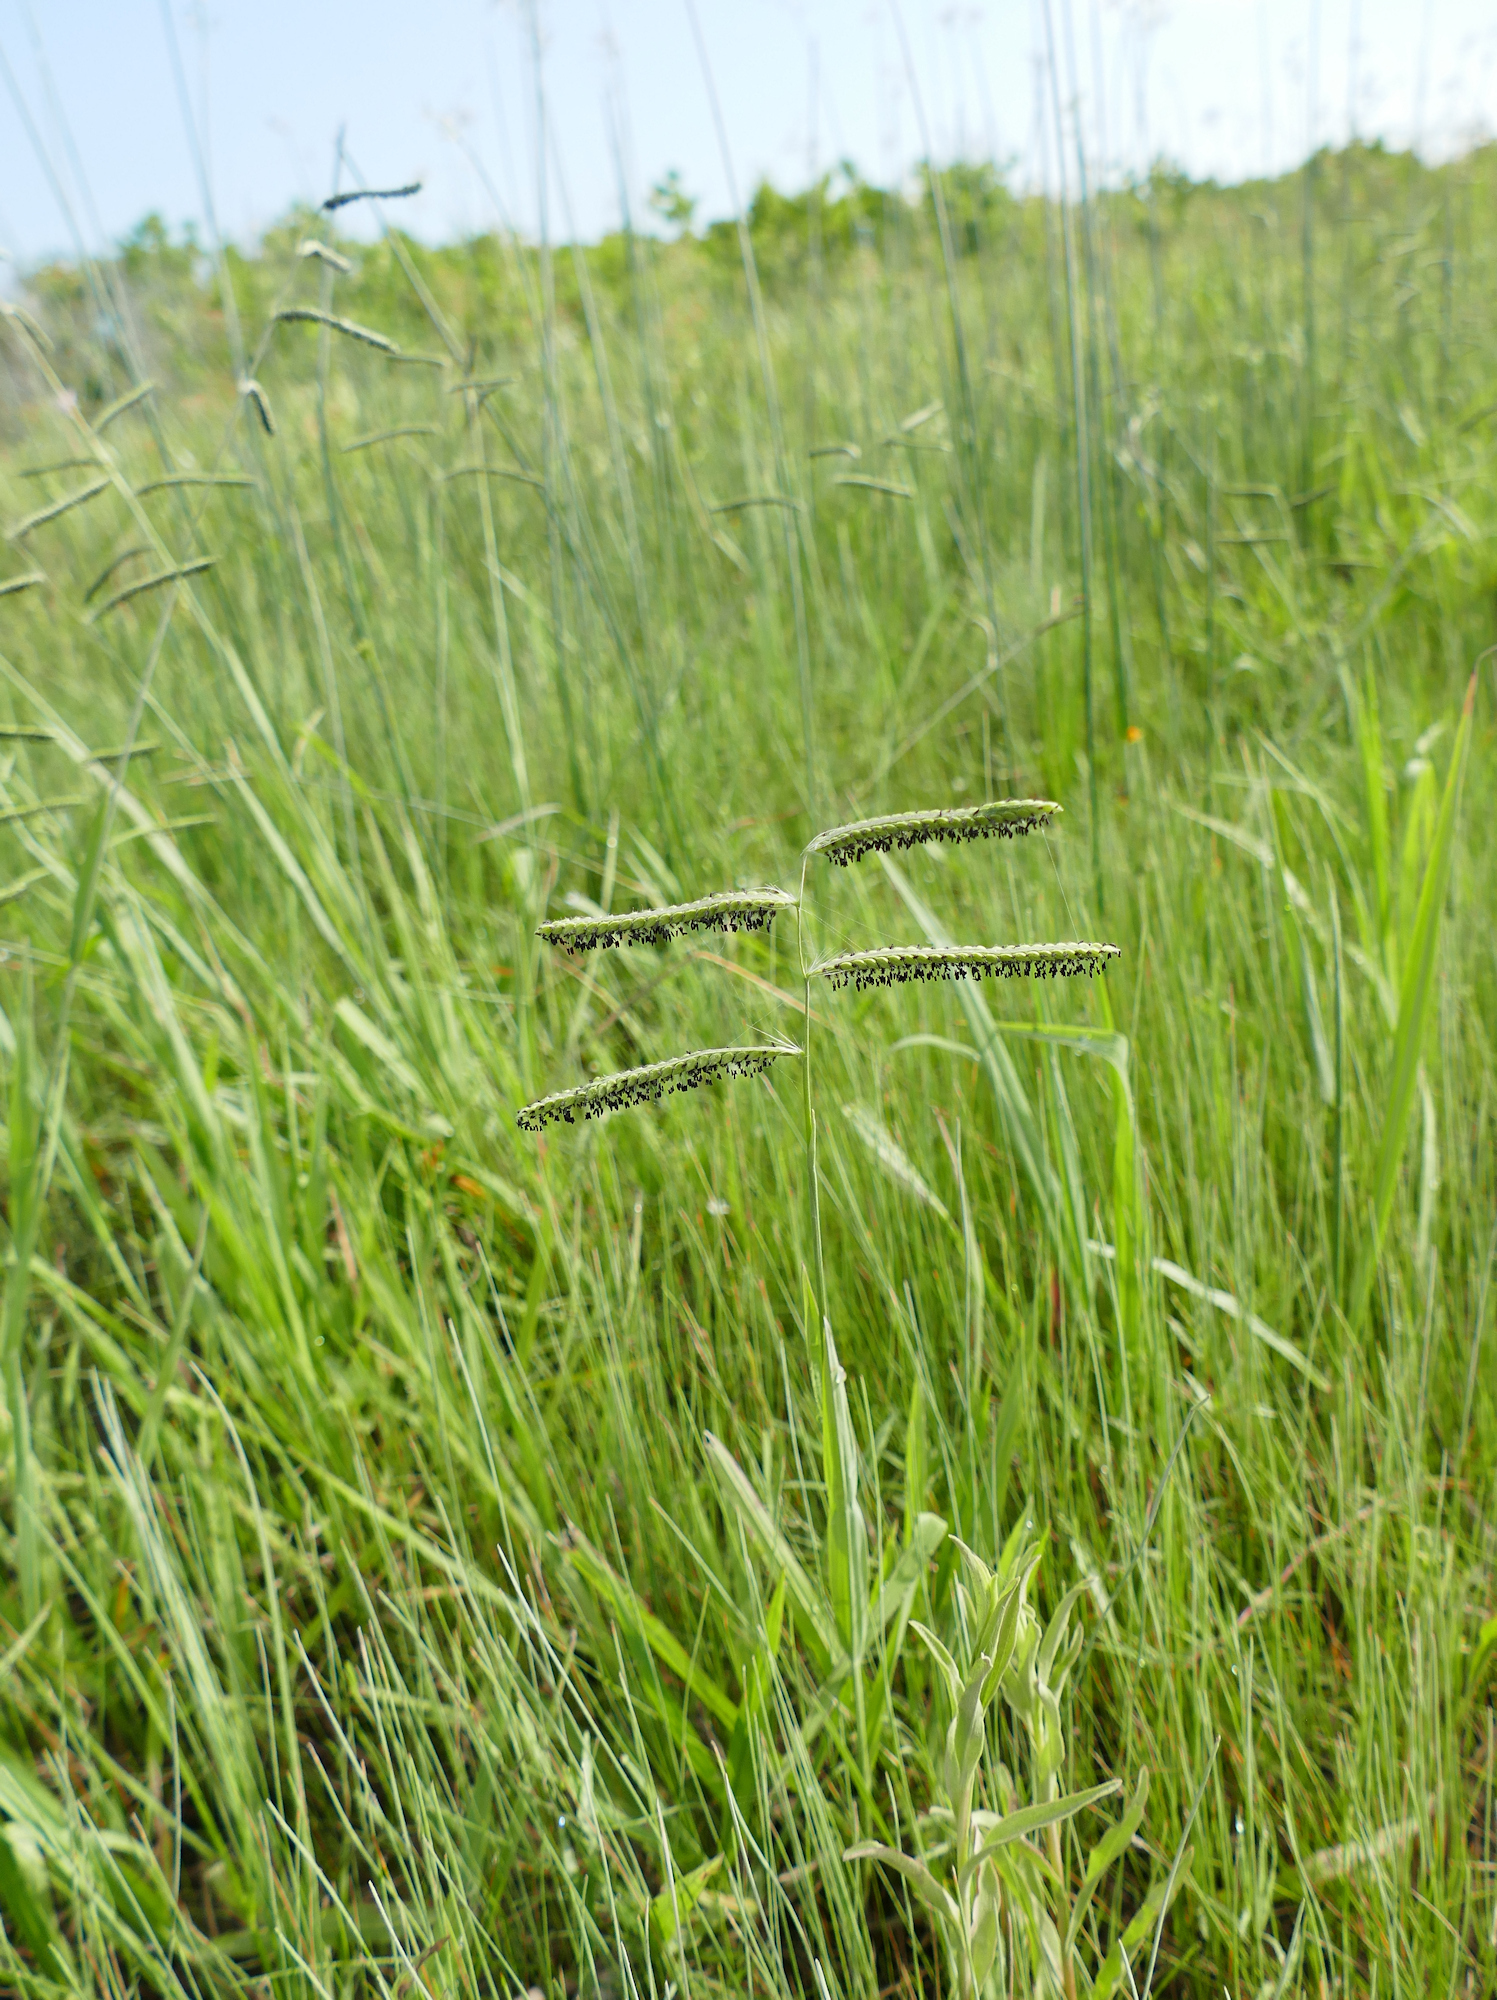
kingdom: Plantae
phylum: Tracheophyta
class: Liliopsida
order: Poales
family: Poaceae
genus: Paspalum
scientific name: Paspalum dilatatum
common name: Dallisgrass
